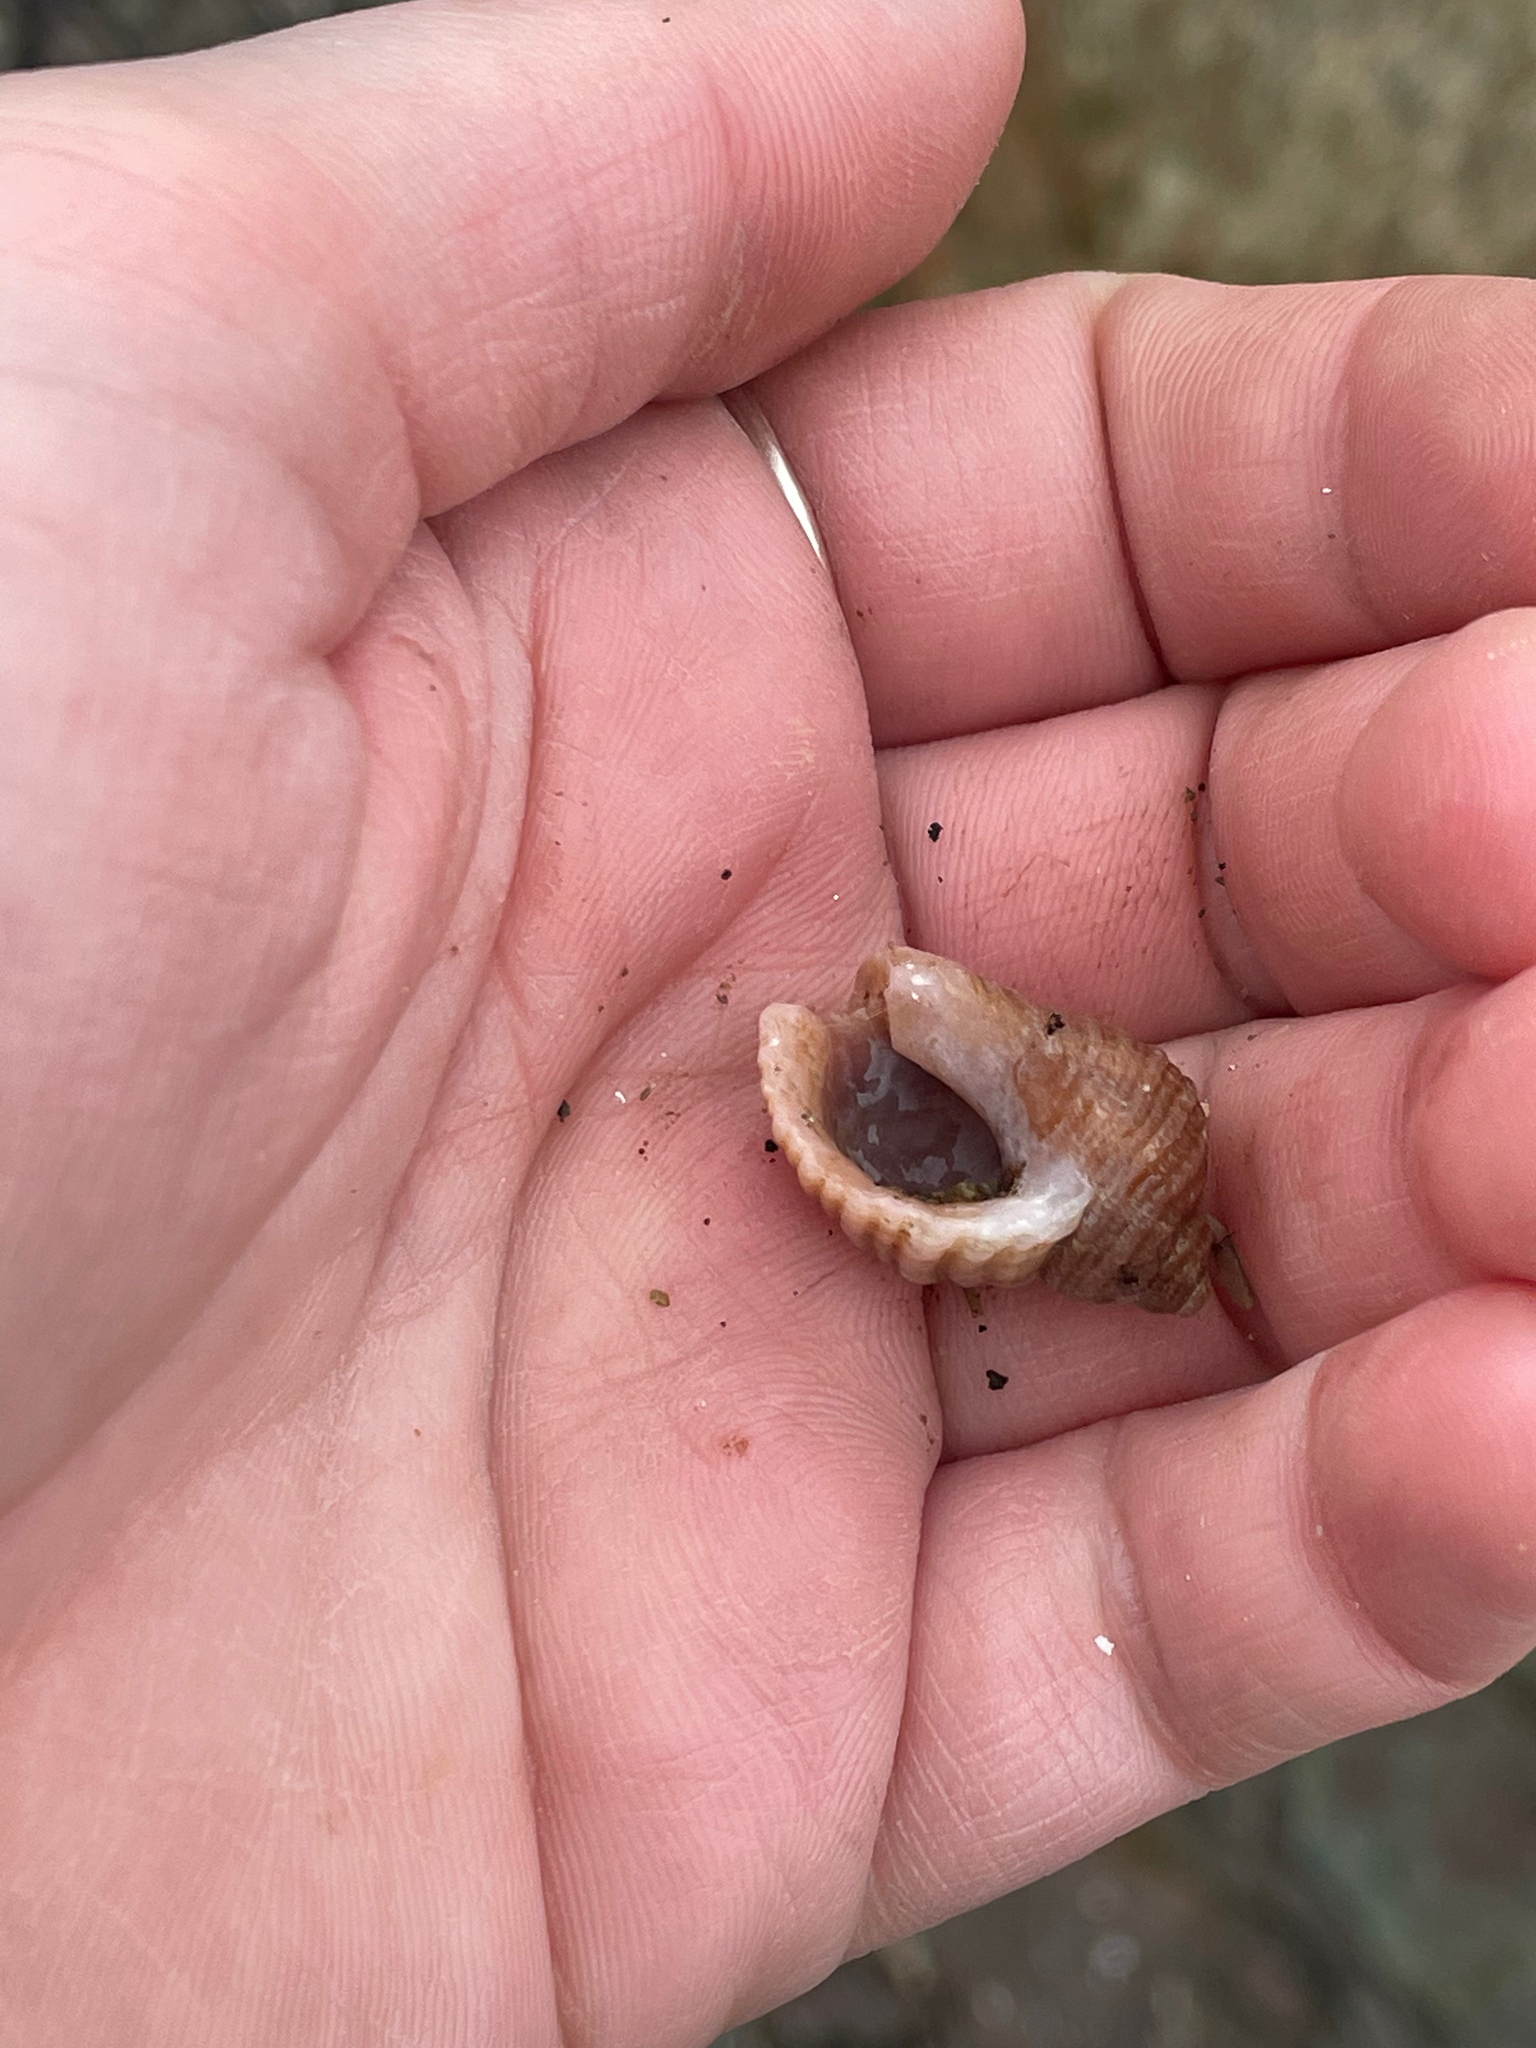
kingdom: Animalia
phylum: Mollusca
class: Gastropoda
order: Neogastropoda
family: Muricidae
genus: Nucella
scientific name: Nucella lapillus
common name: Dog whelk
